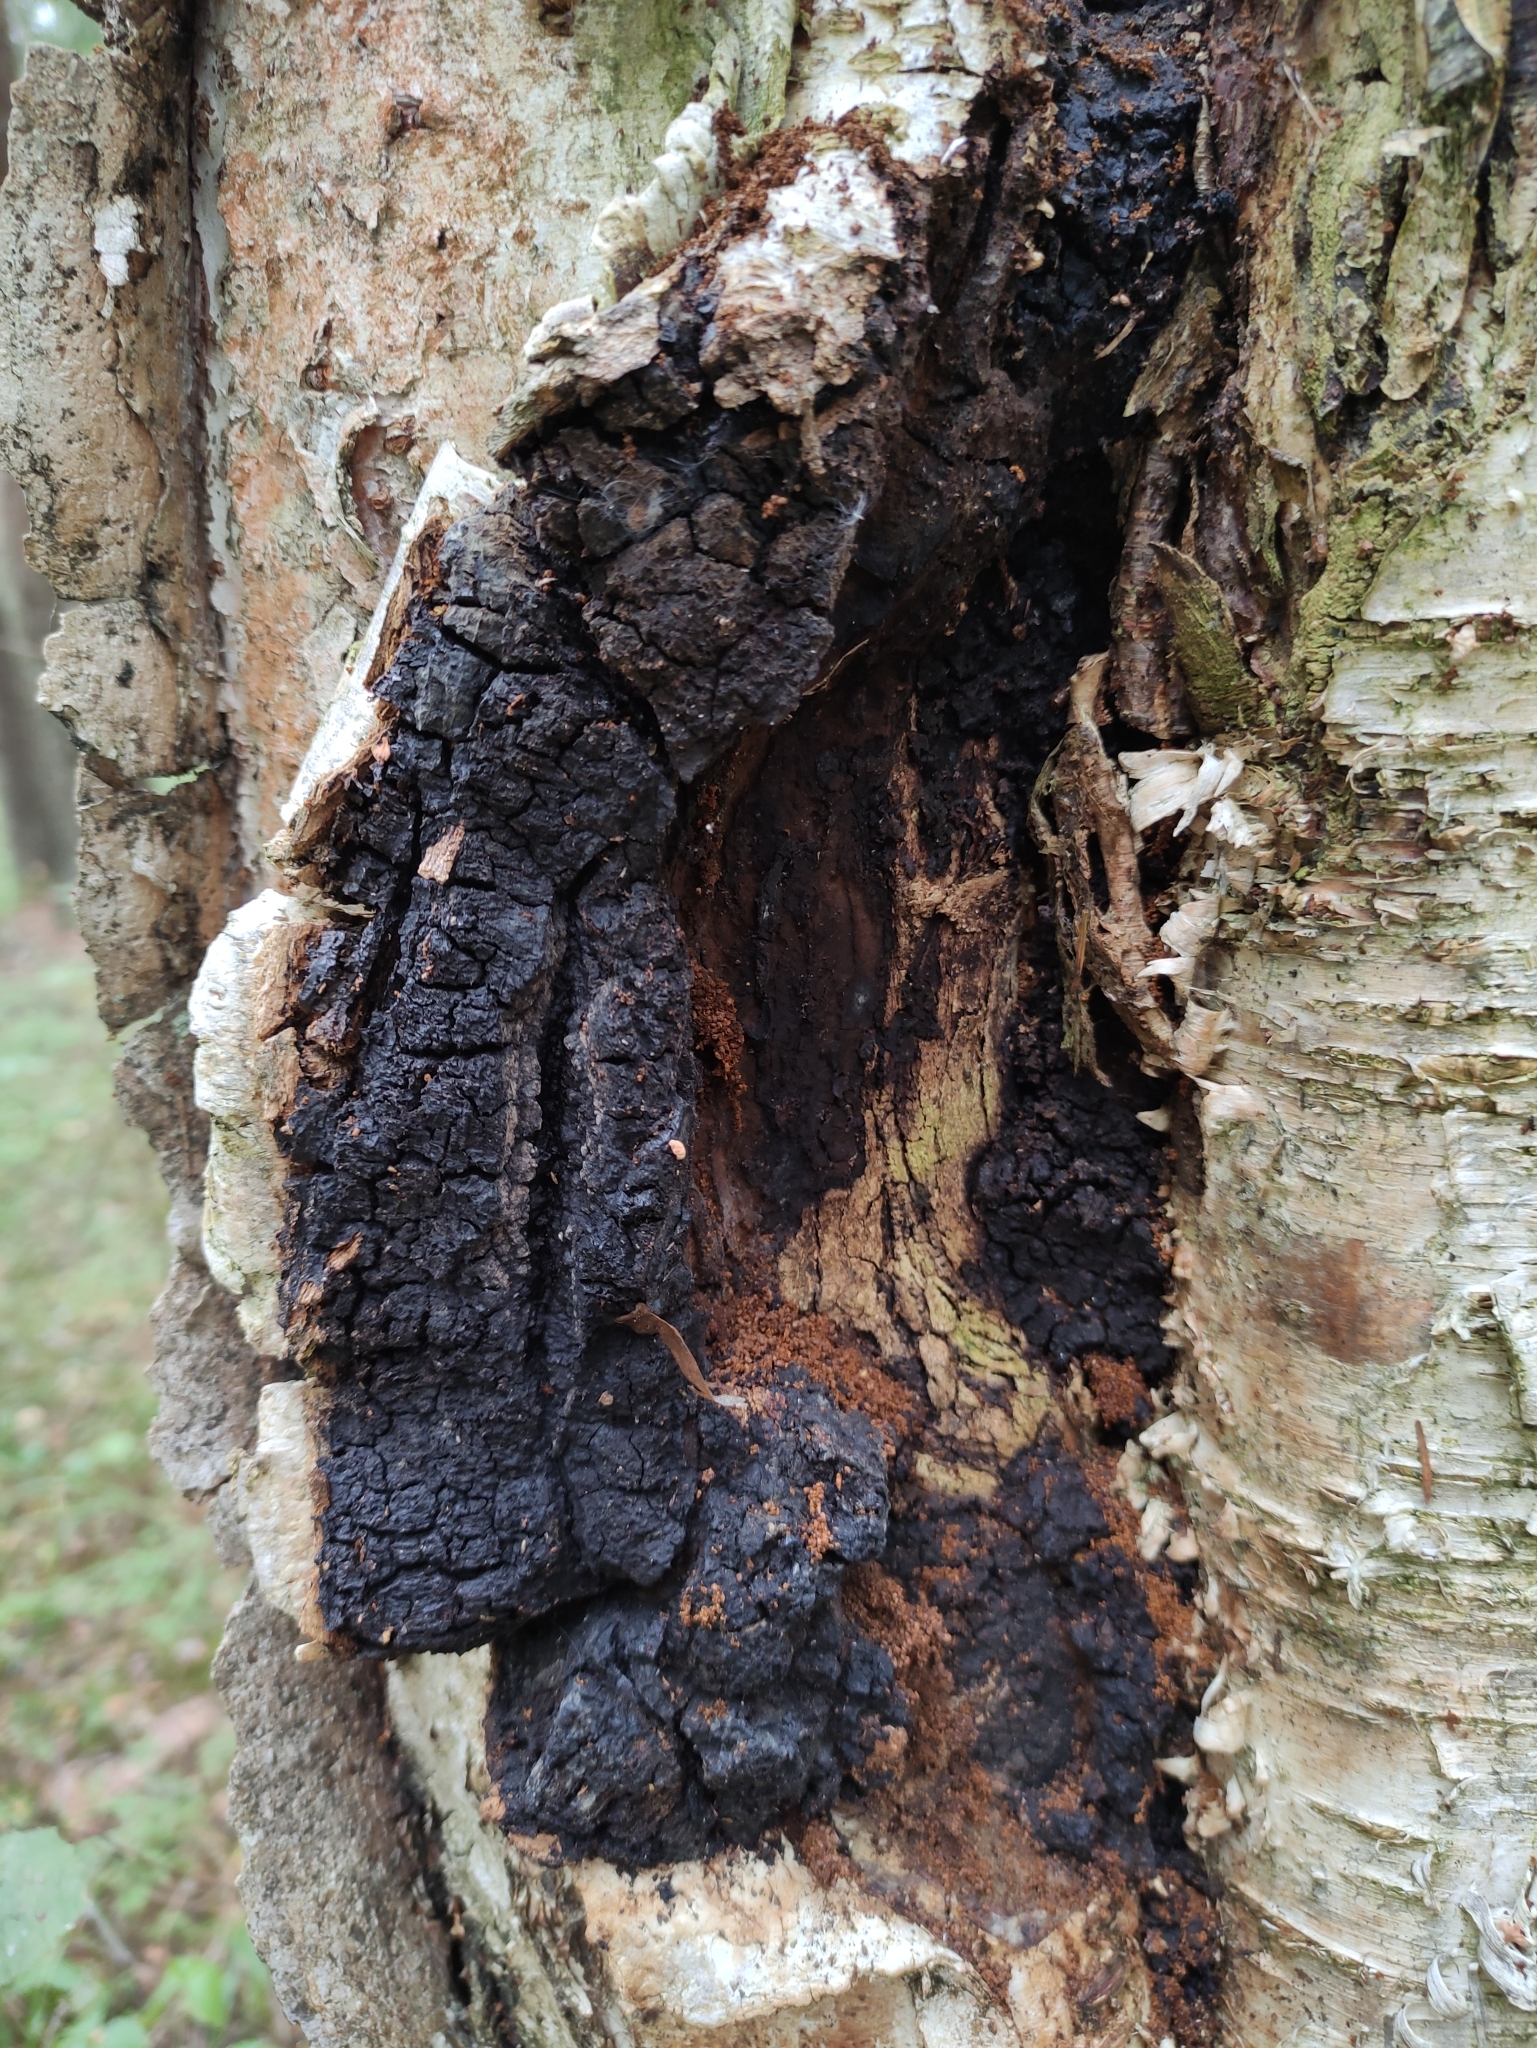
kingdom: Fungi
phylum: Basidiomycota
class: Agaricomycetes
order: Hymenochaetales
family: Hymenochaetaceae
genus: Inonotus
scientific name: Inonotus obliquus
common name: Chaga
